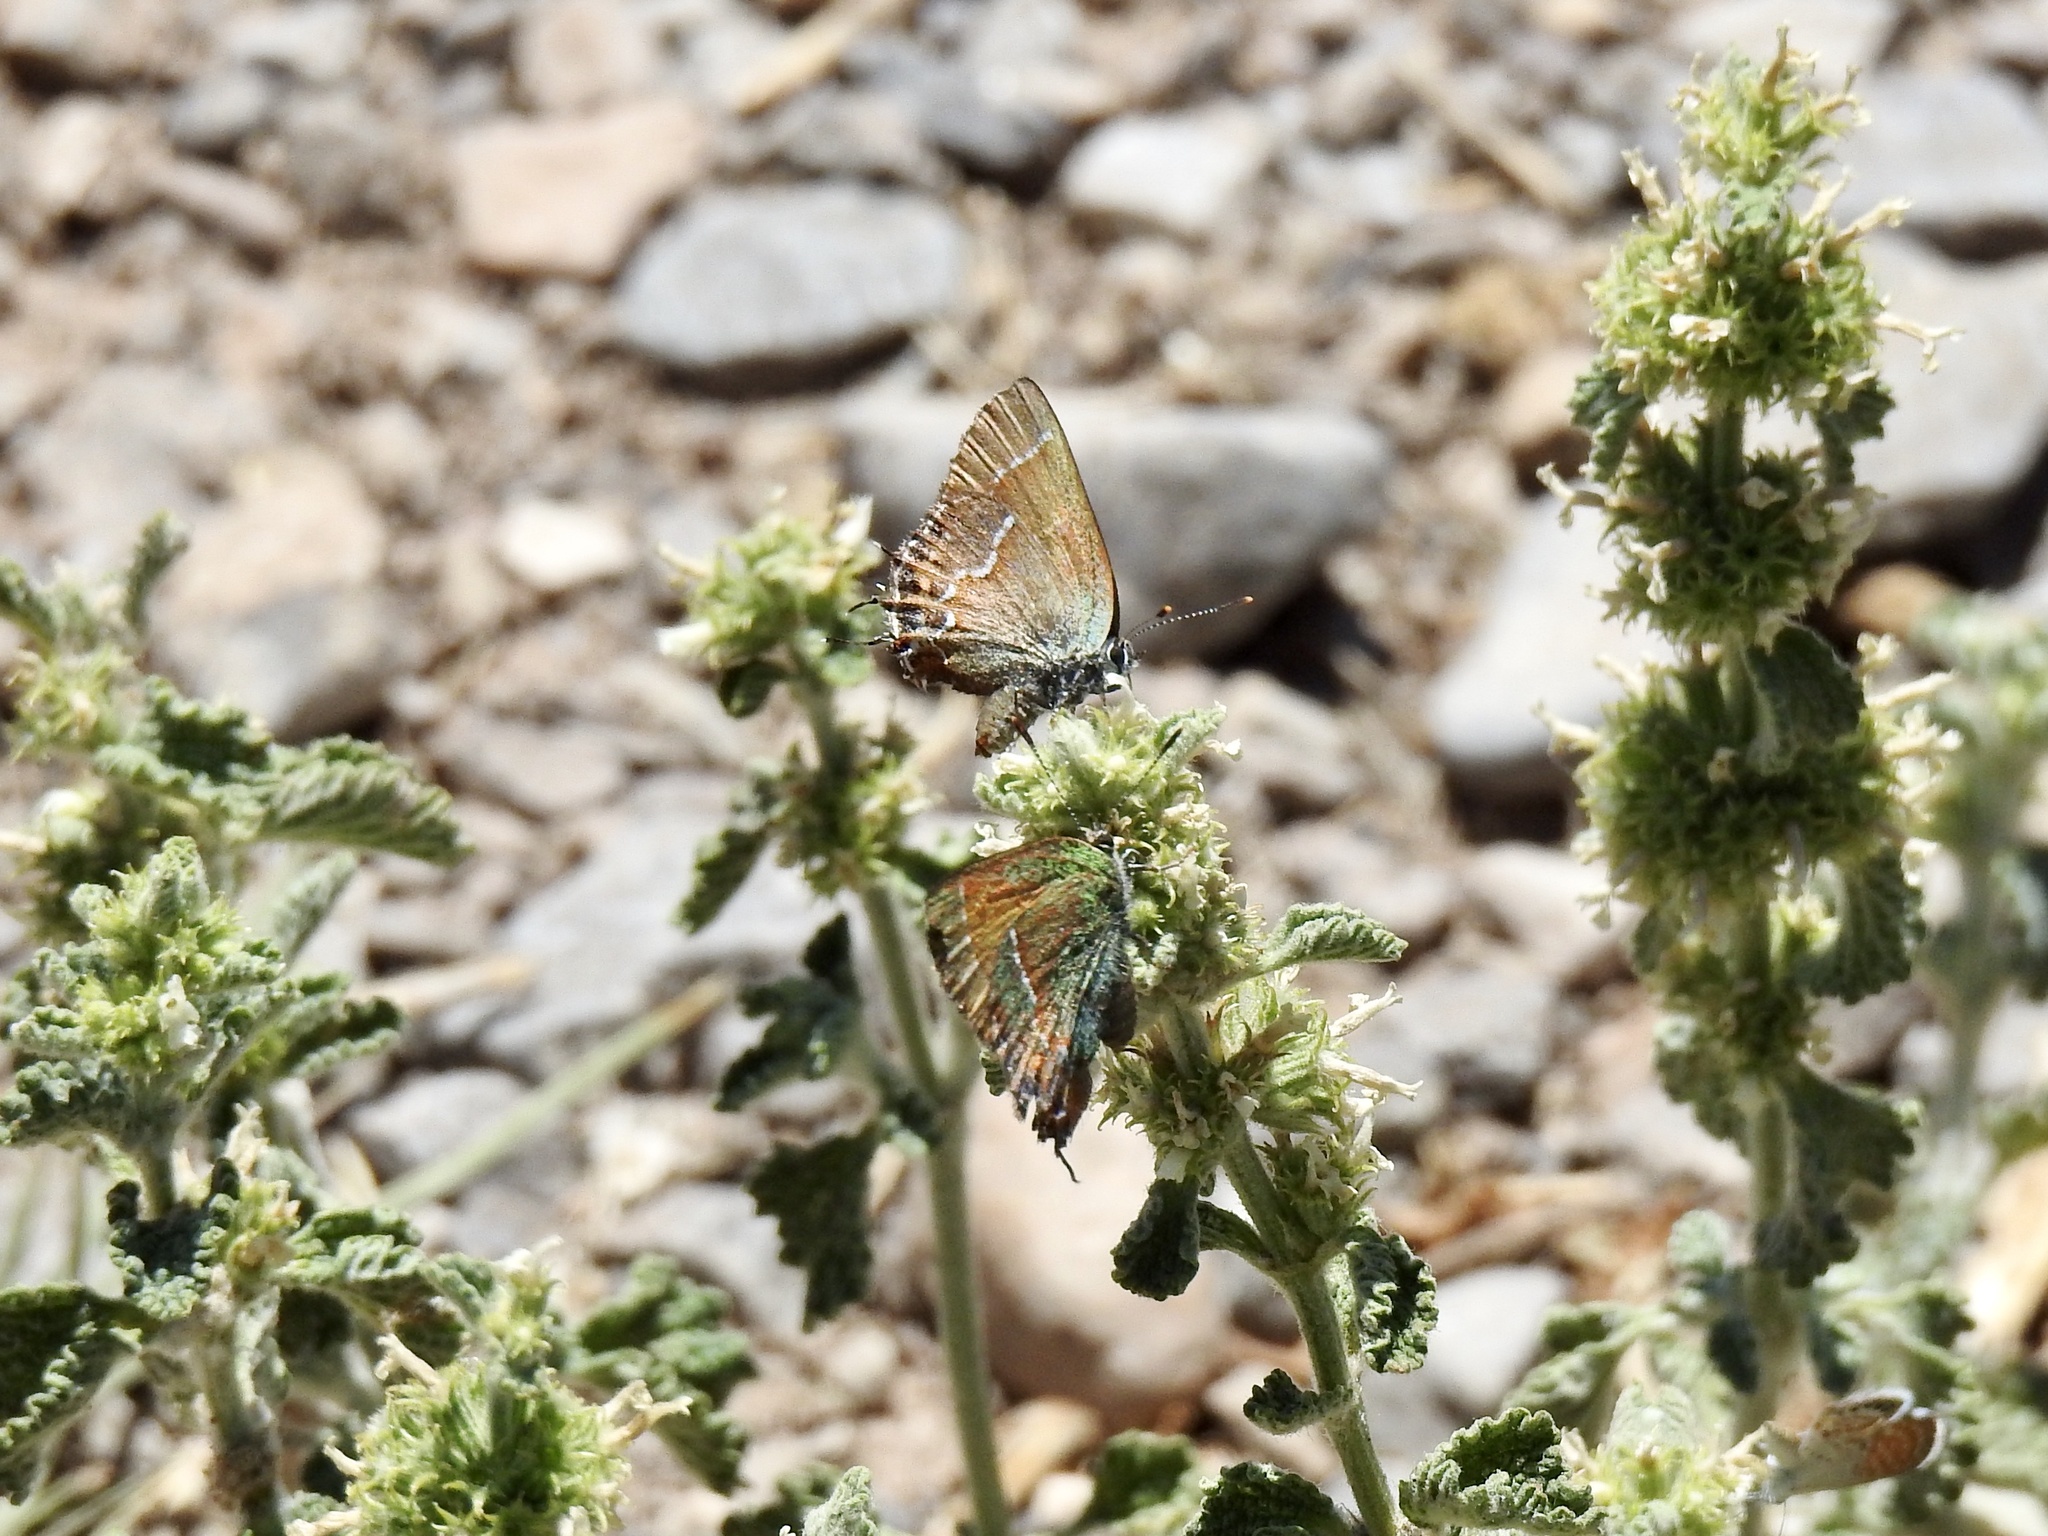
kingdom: Animalia
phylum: Arthropoda
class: Insecta
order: Lepidoptera
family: Lycaenidae
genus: Mitoura
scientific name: Mitoura gryneus
